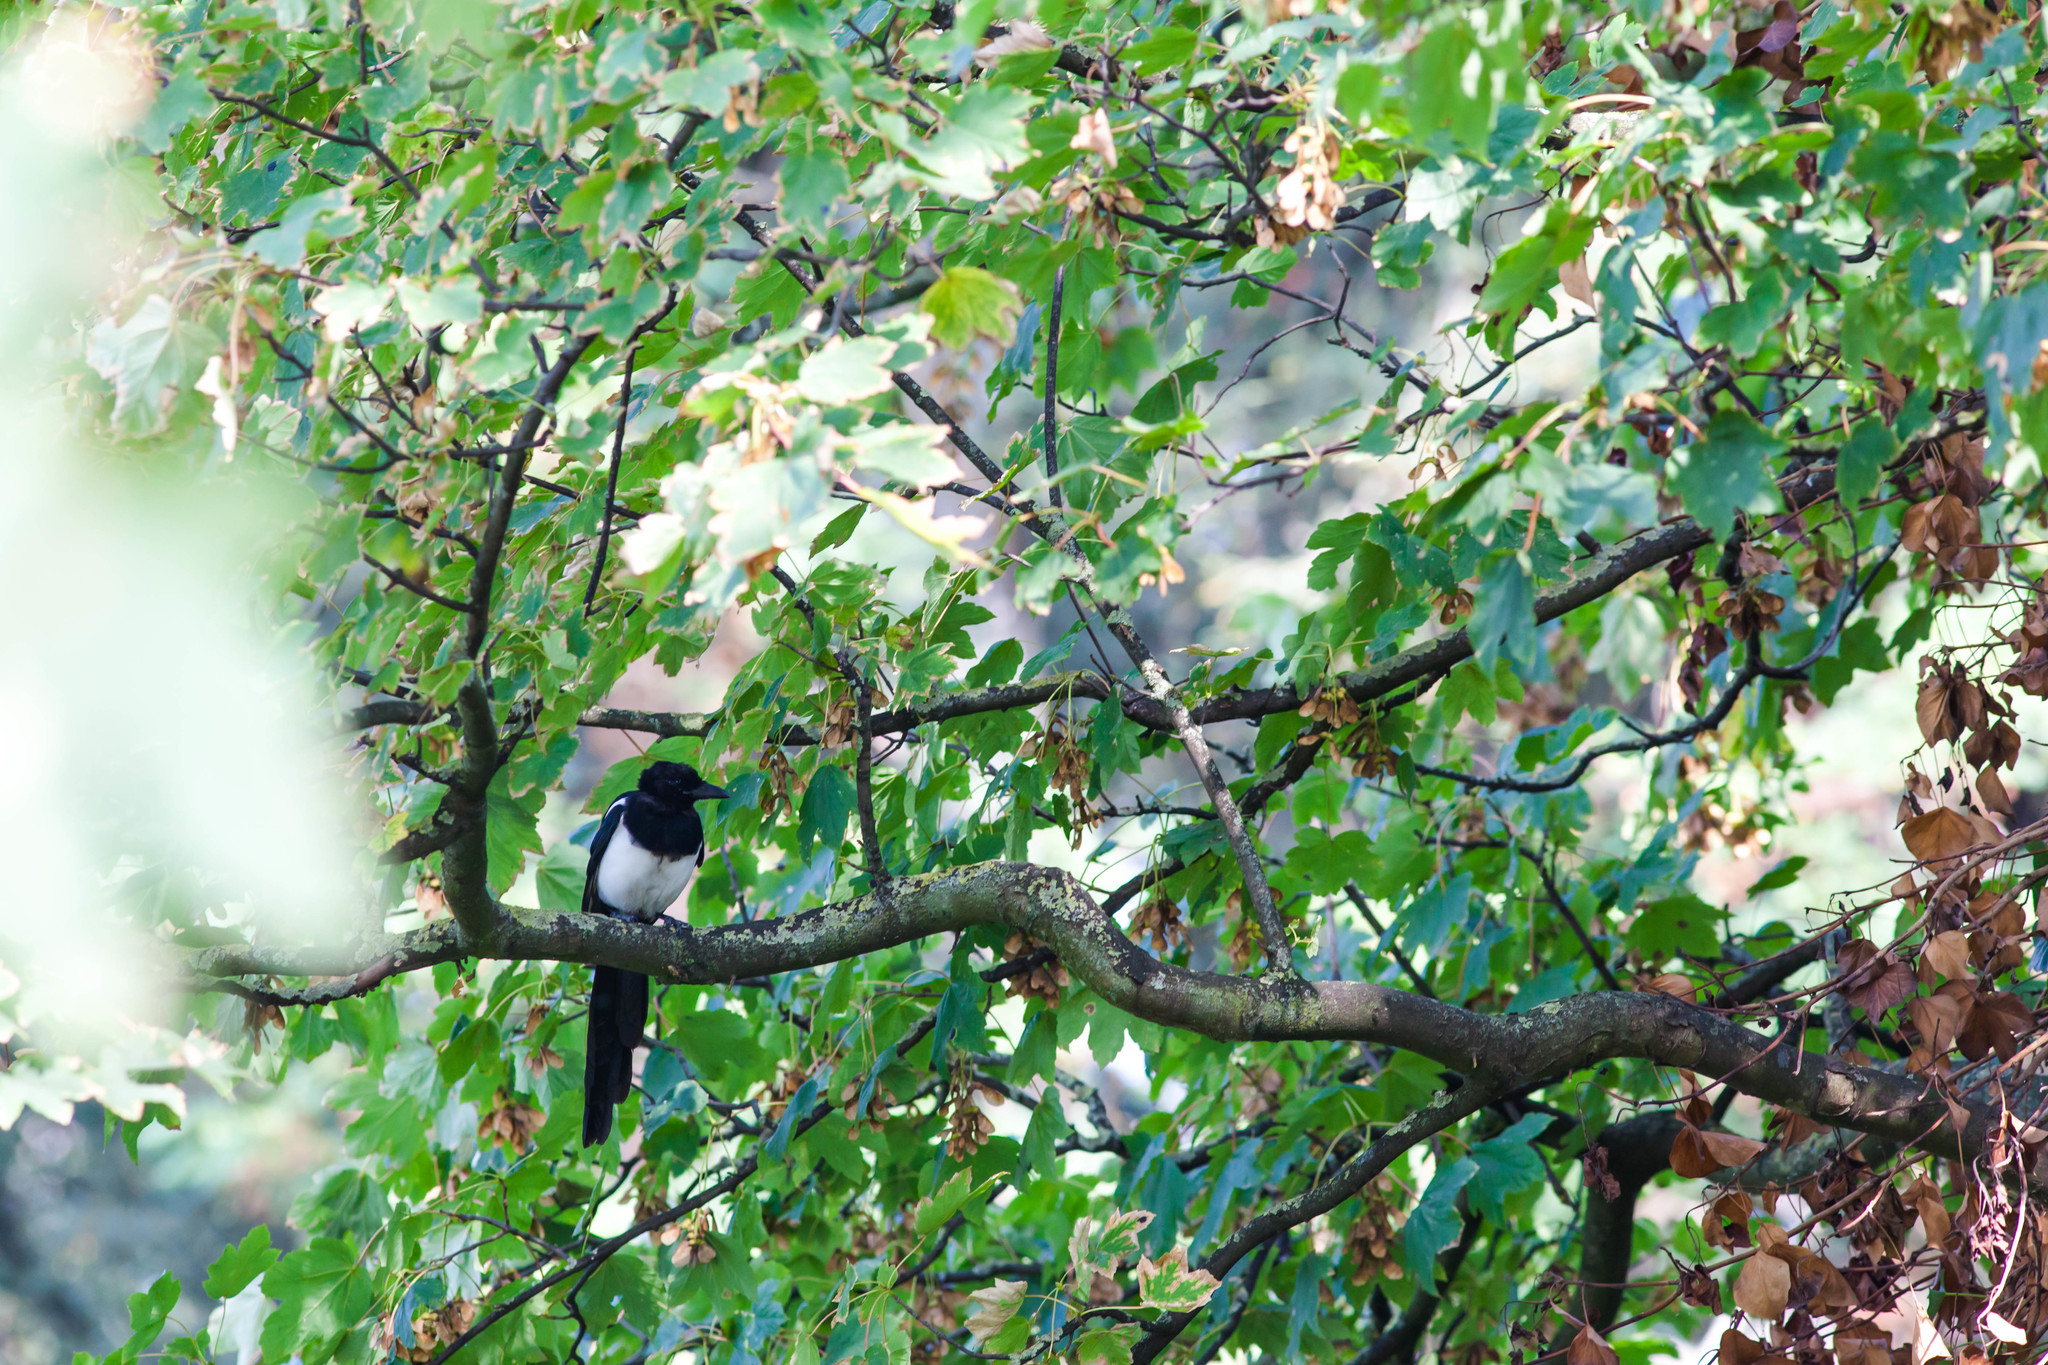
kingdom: Animalia
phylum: Chordata
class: Aves
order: Passeriformes
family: Corvidae
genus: Pica
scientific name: Pica pica
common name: Eurasian magpie
